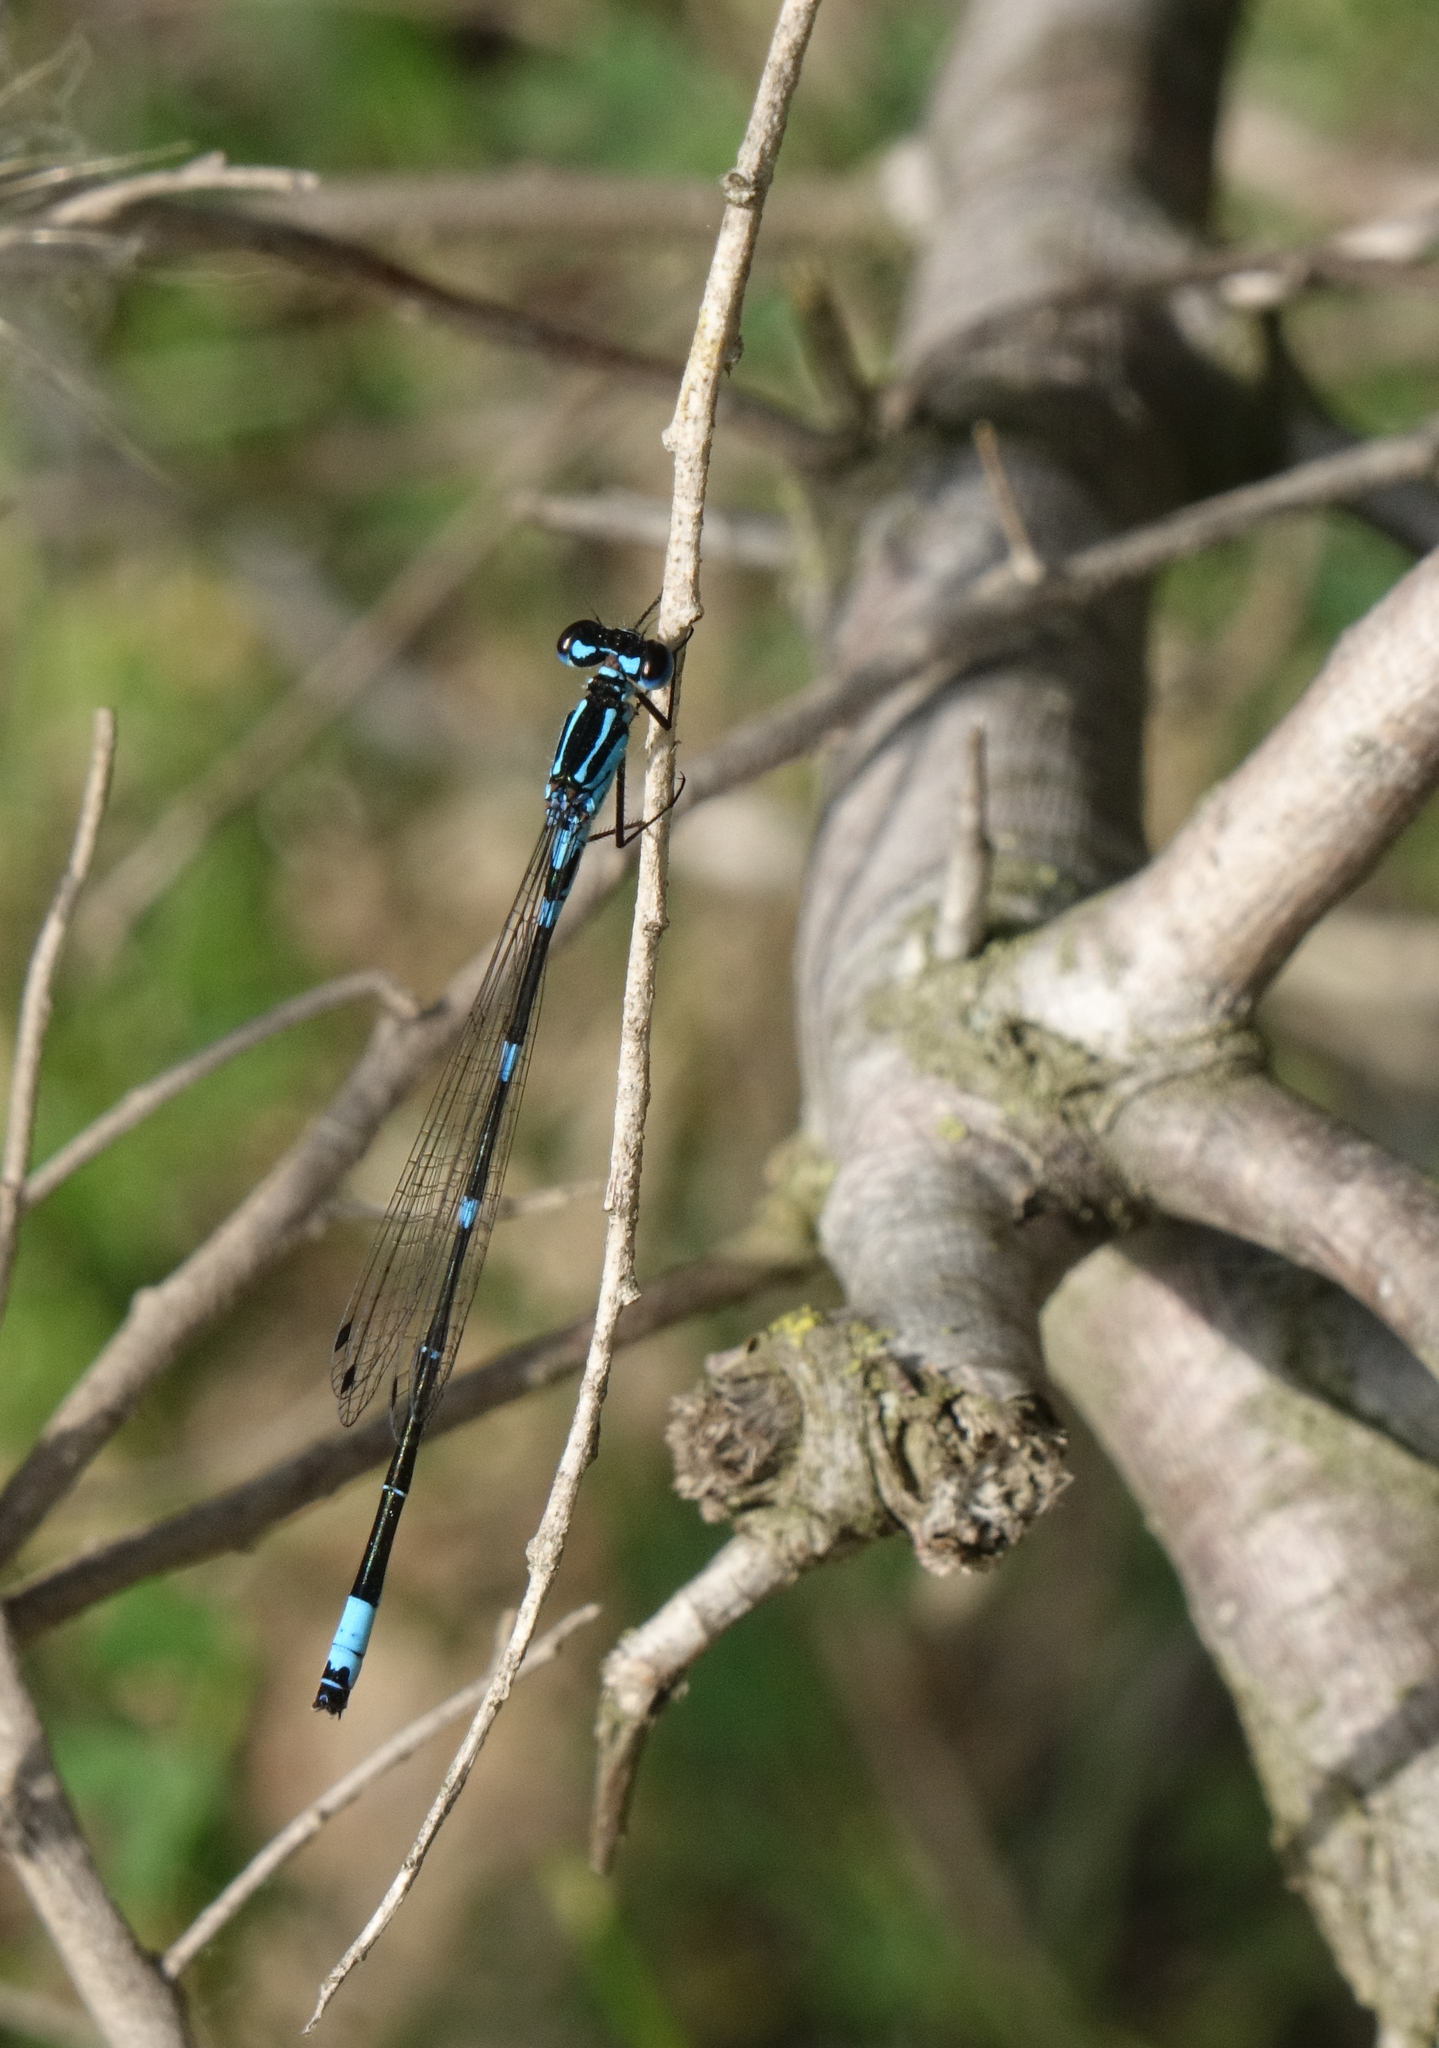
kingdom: Animalia
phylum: Arthropoda
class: Insecta
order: Odonata
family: Coenagrionidae
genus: Coenagrion
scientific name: Coenagrion pulchellum
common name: Variable bluet
